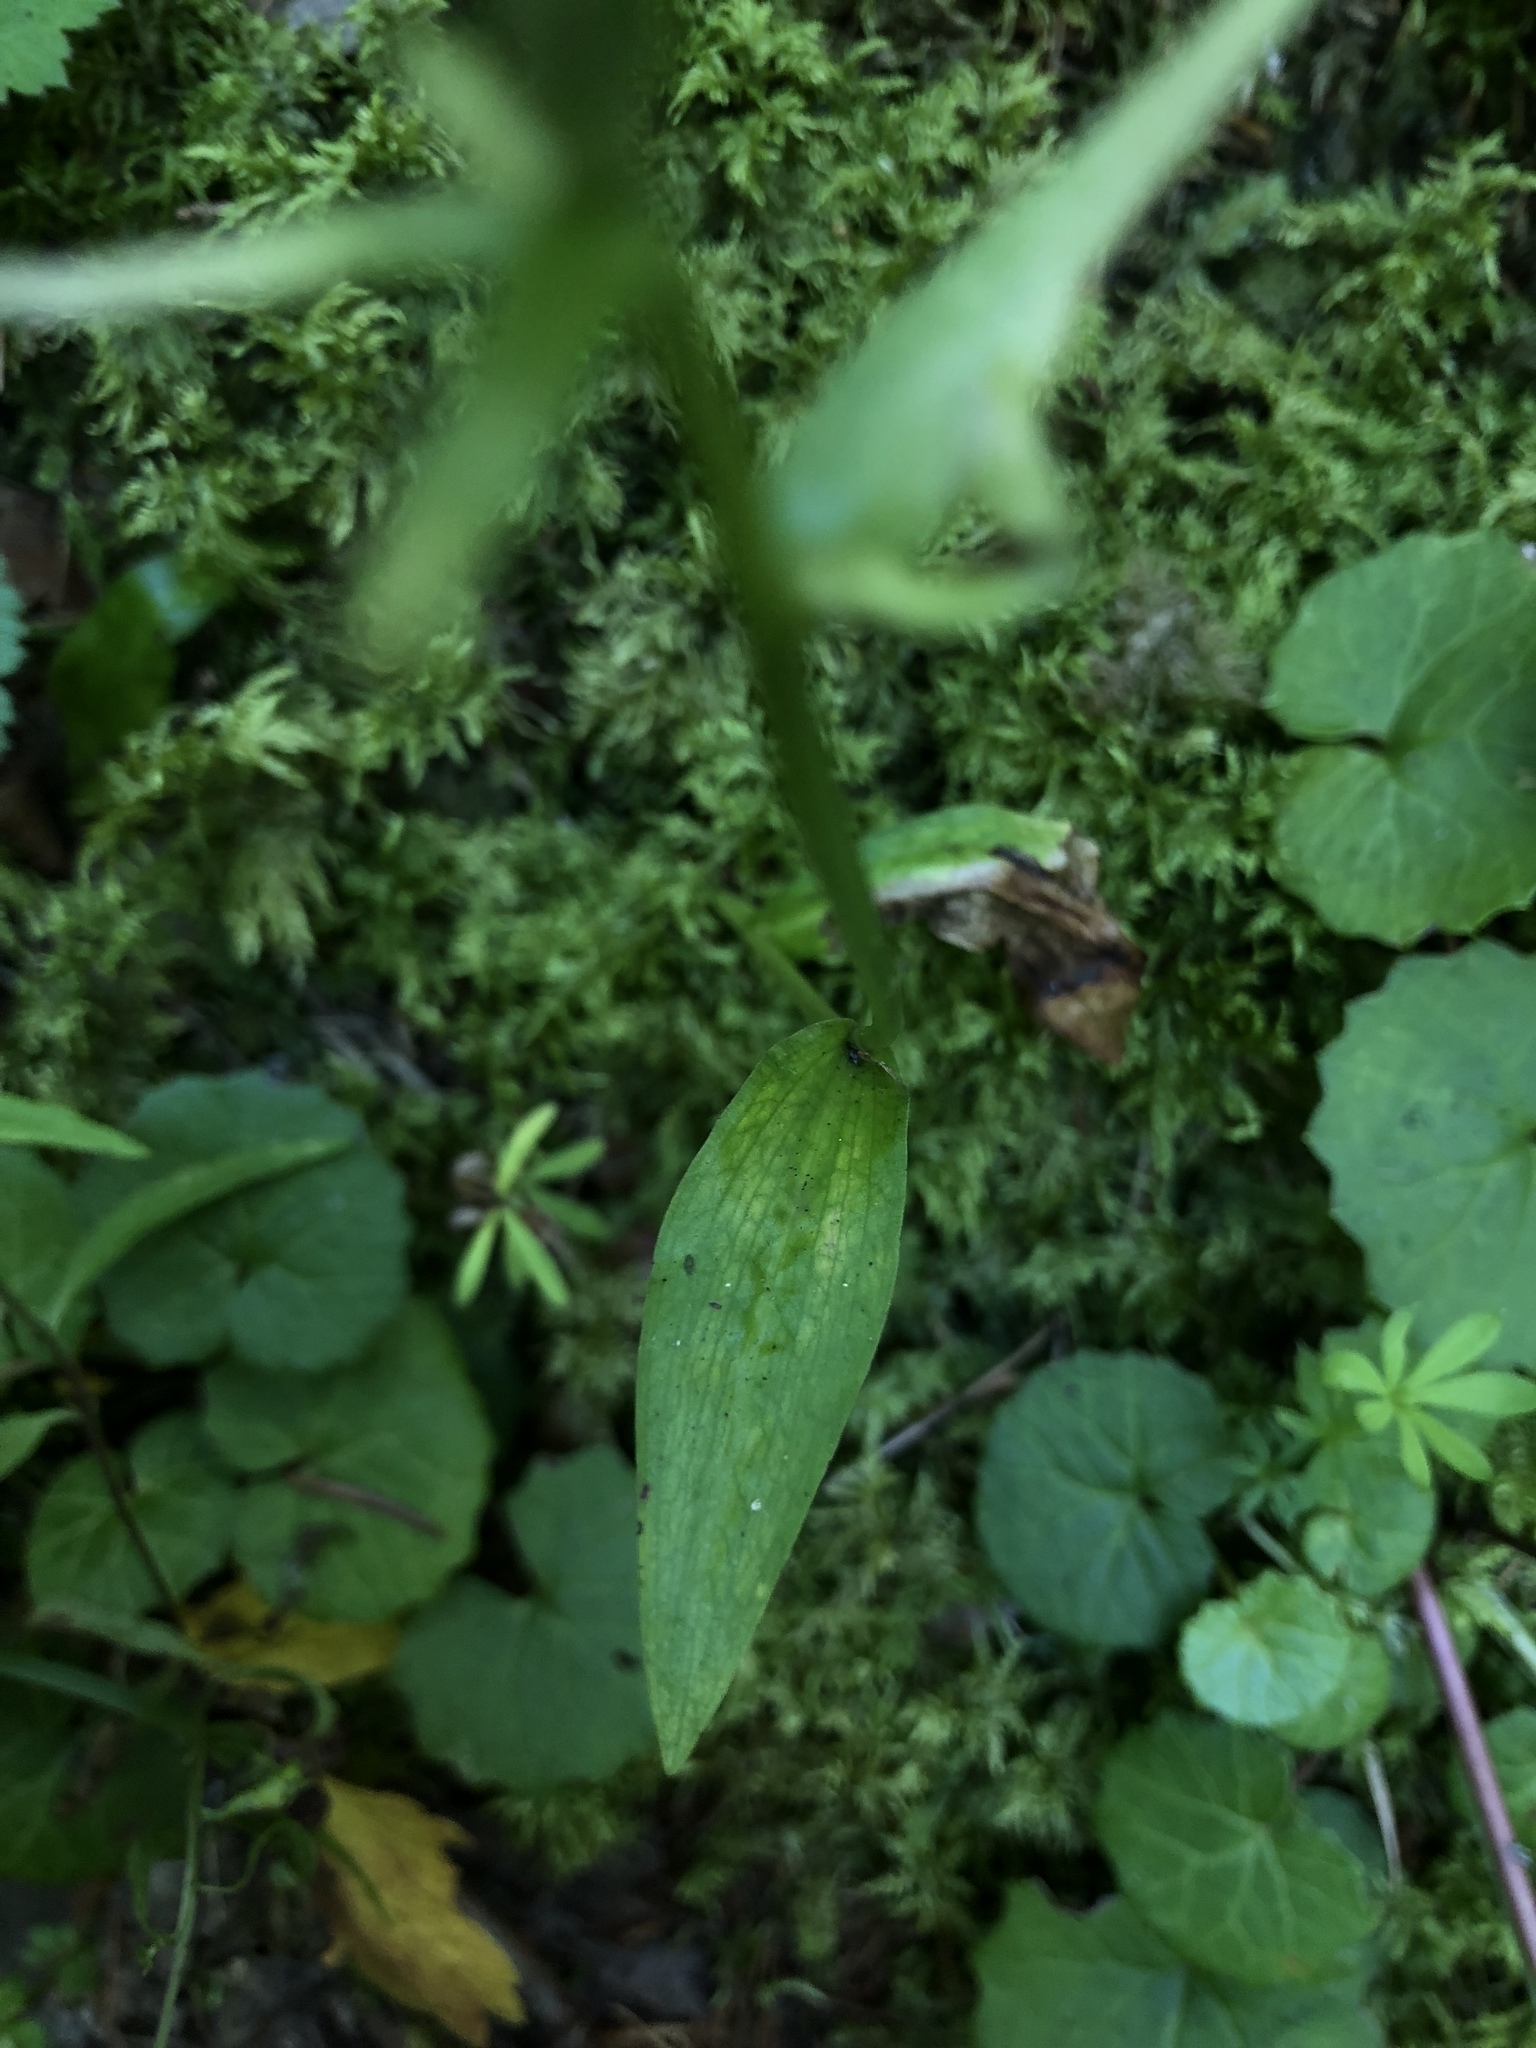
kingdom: Plantae
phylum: Tracheophyta
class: Liliopsida
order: Asparagales
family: Orchidaceae
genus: Dactylorhiza
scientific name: Dactylorhiza viridis
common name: Longbract frog orchid
